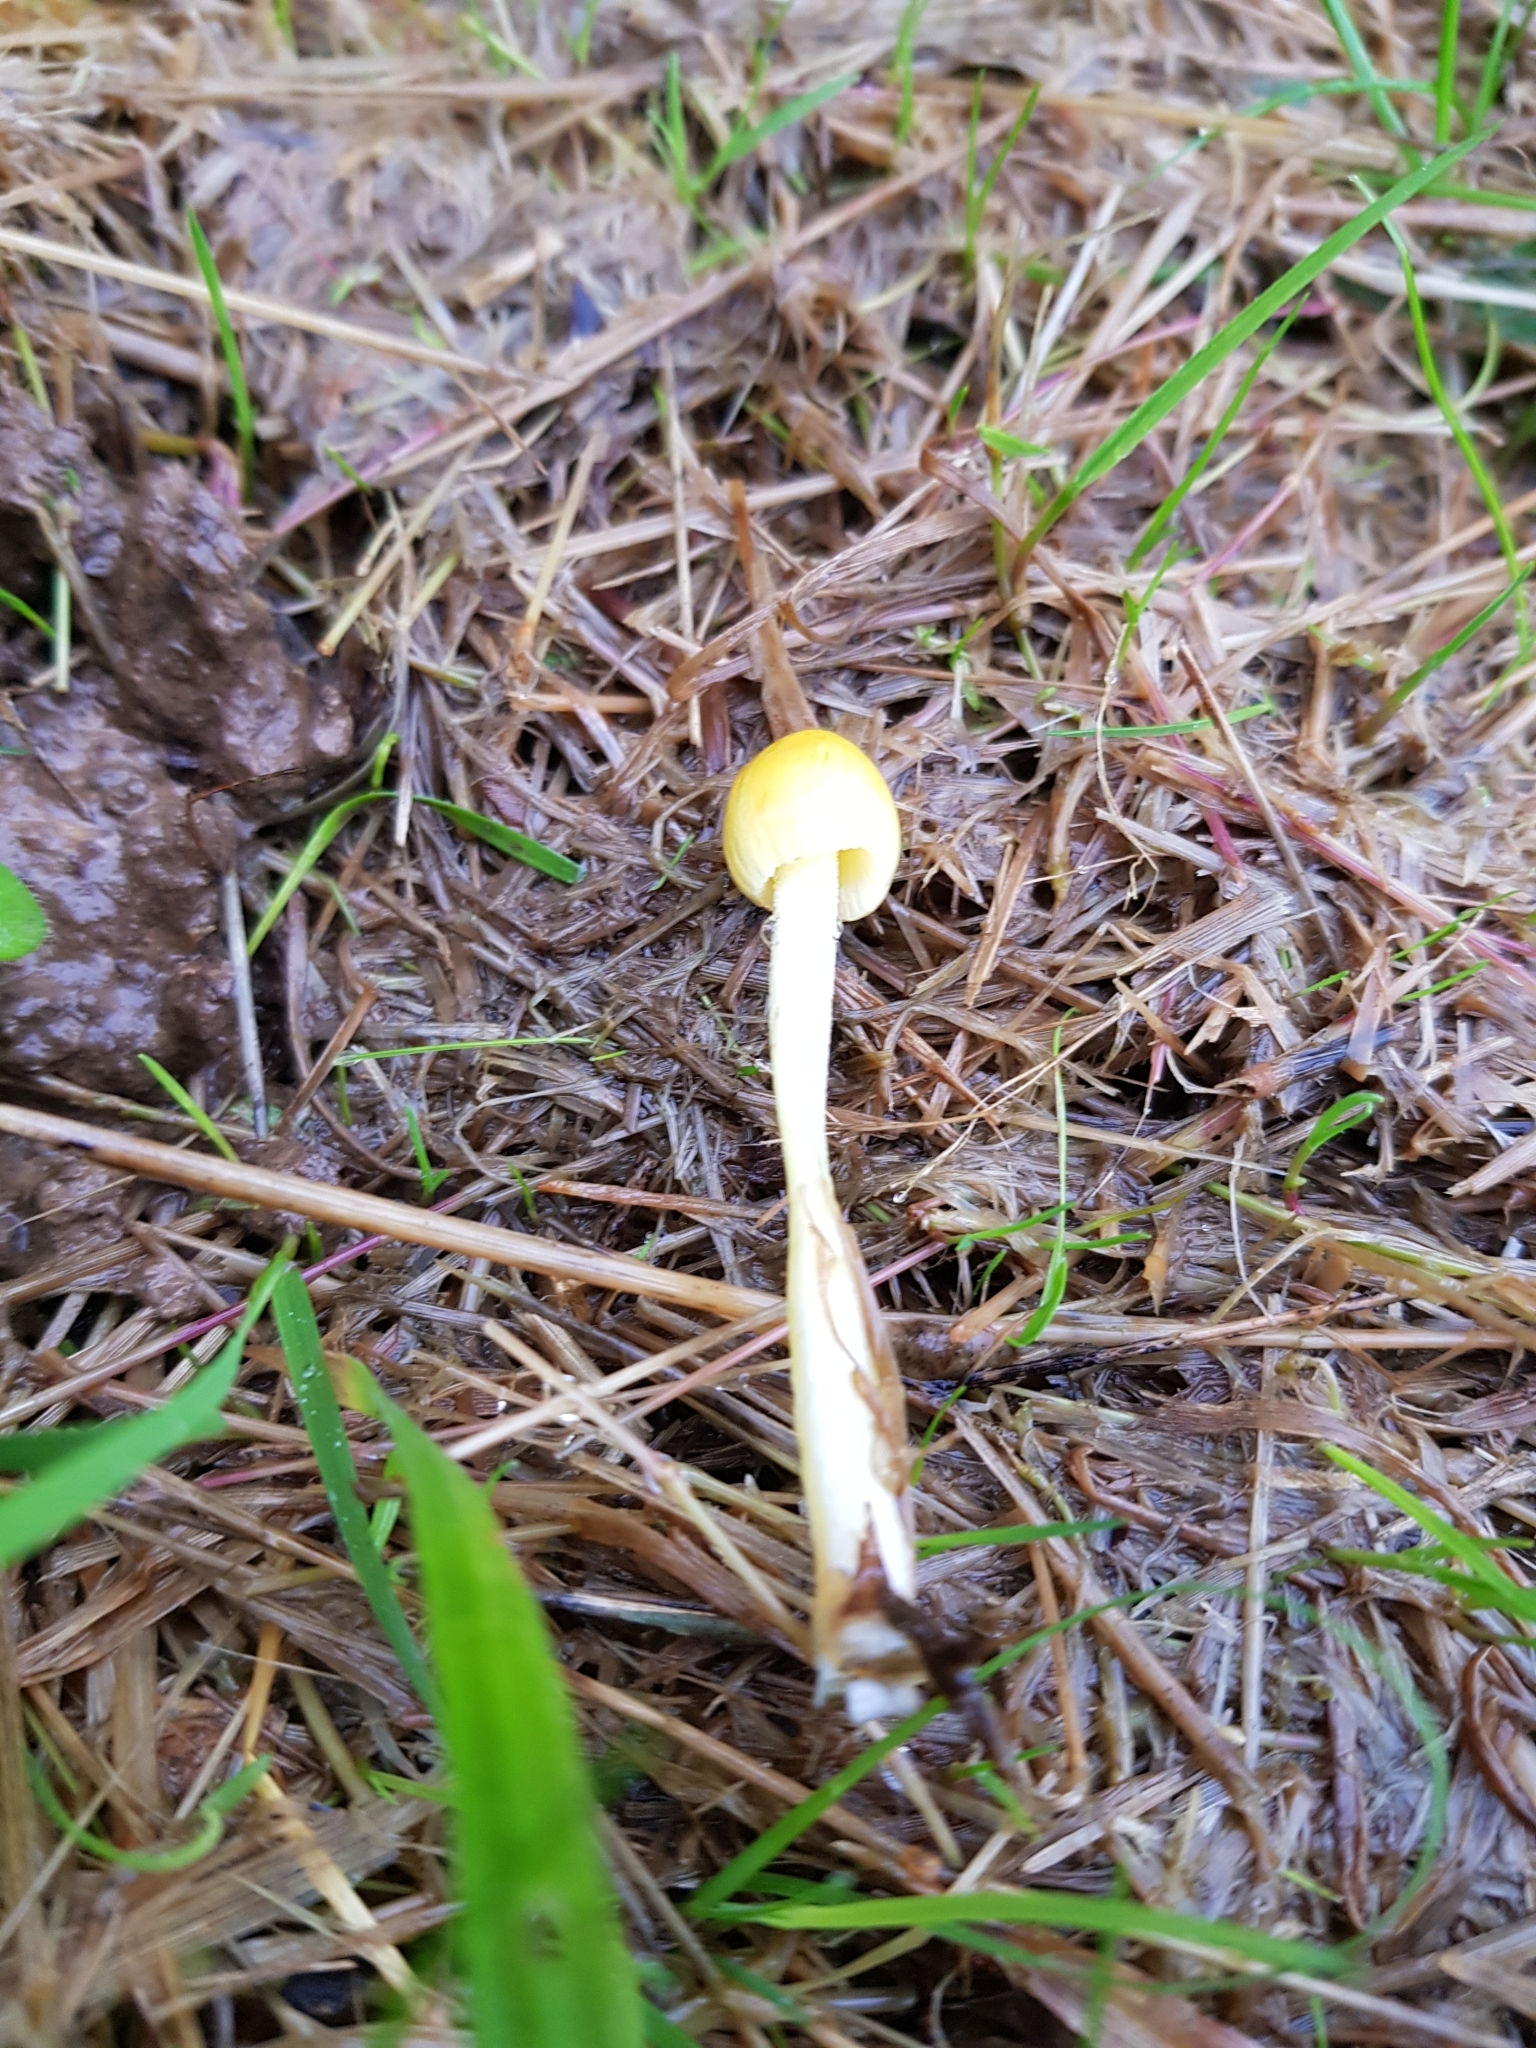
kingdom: Fungi
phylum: Basidiomycota
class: Agaricomycetes
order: Agaricales
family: Bolbitiaceae
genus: Bolbitius
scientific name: Bolbitius titubans
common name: Yellow fieldcap
